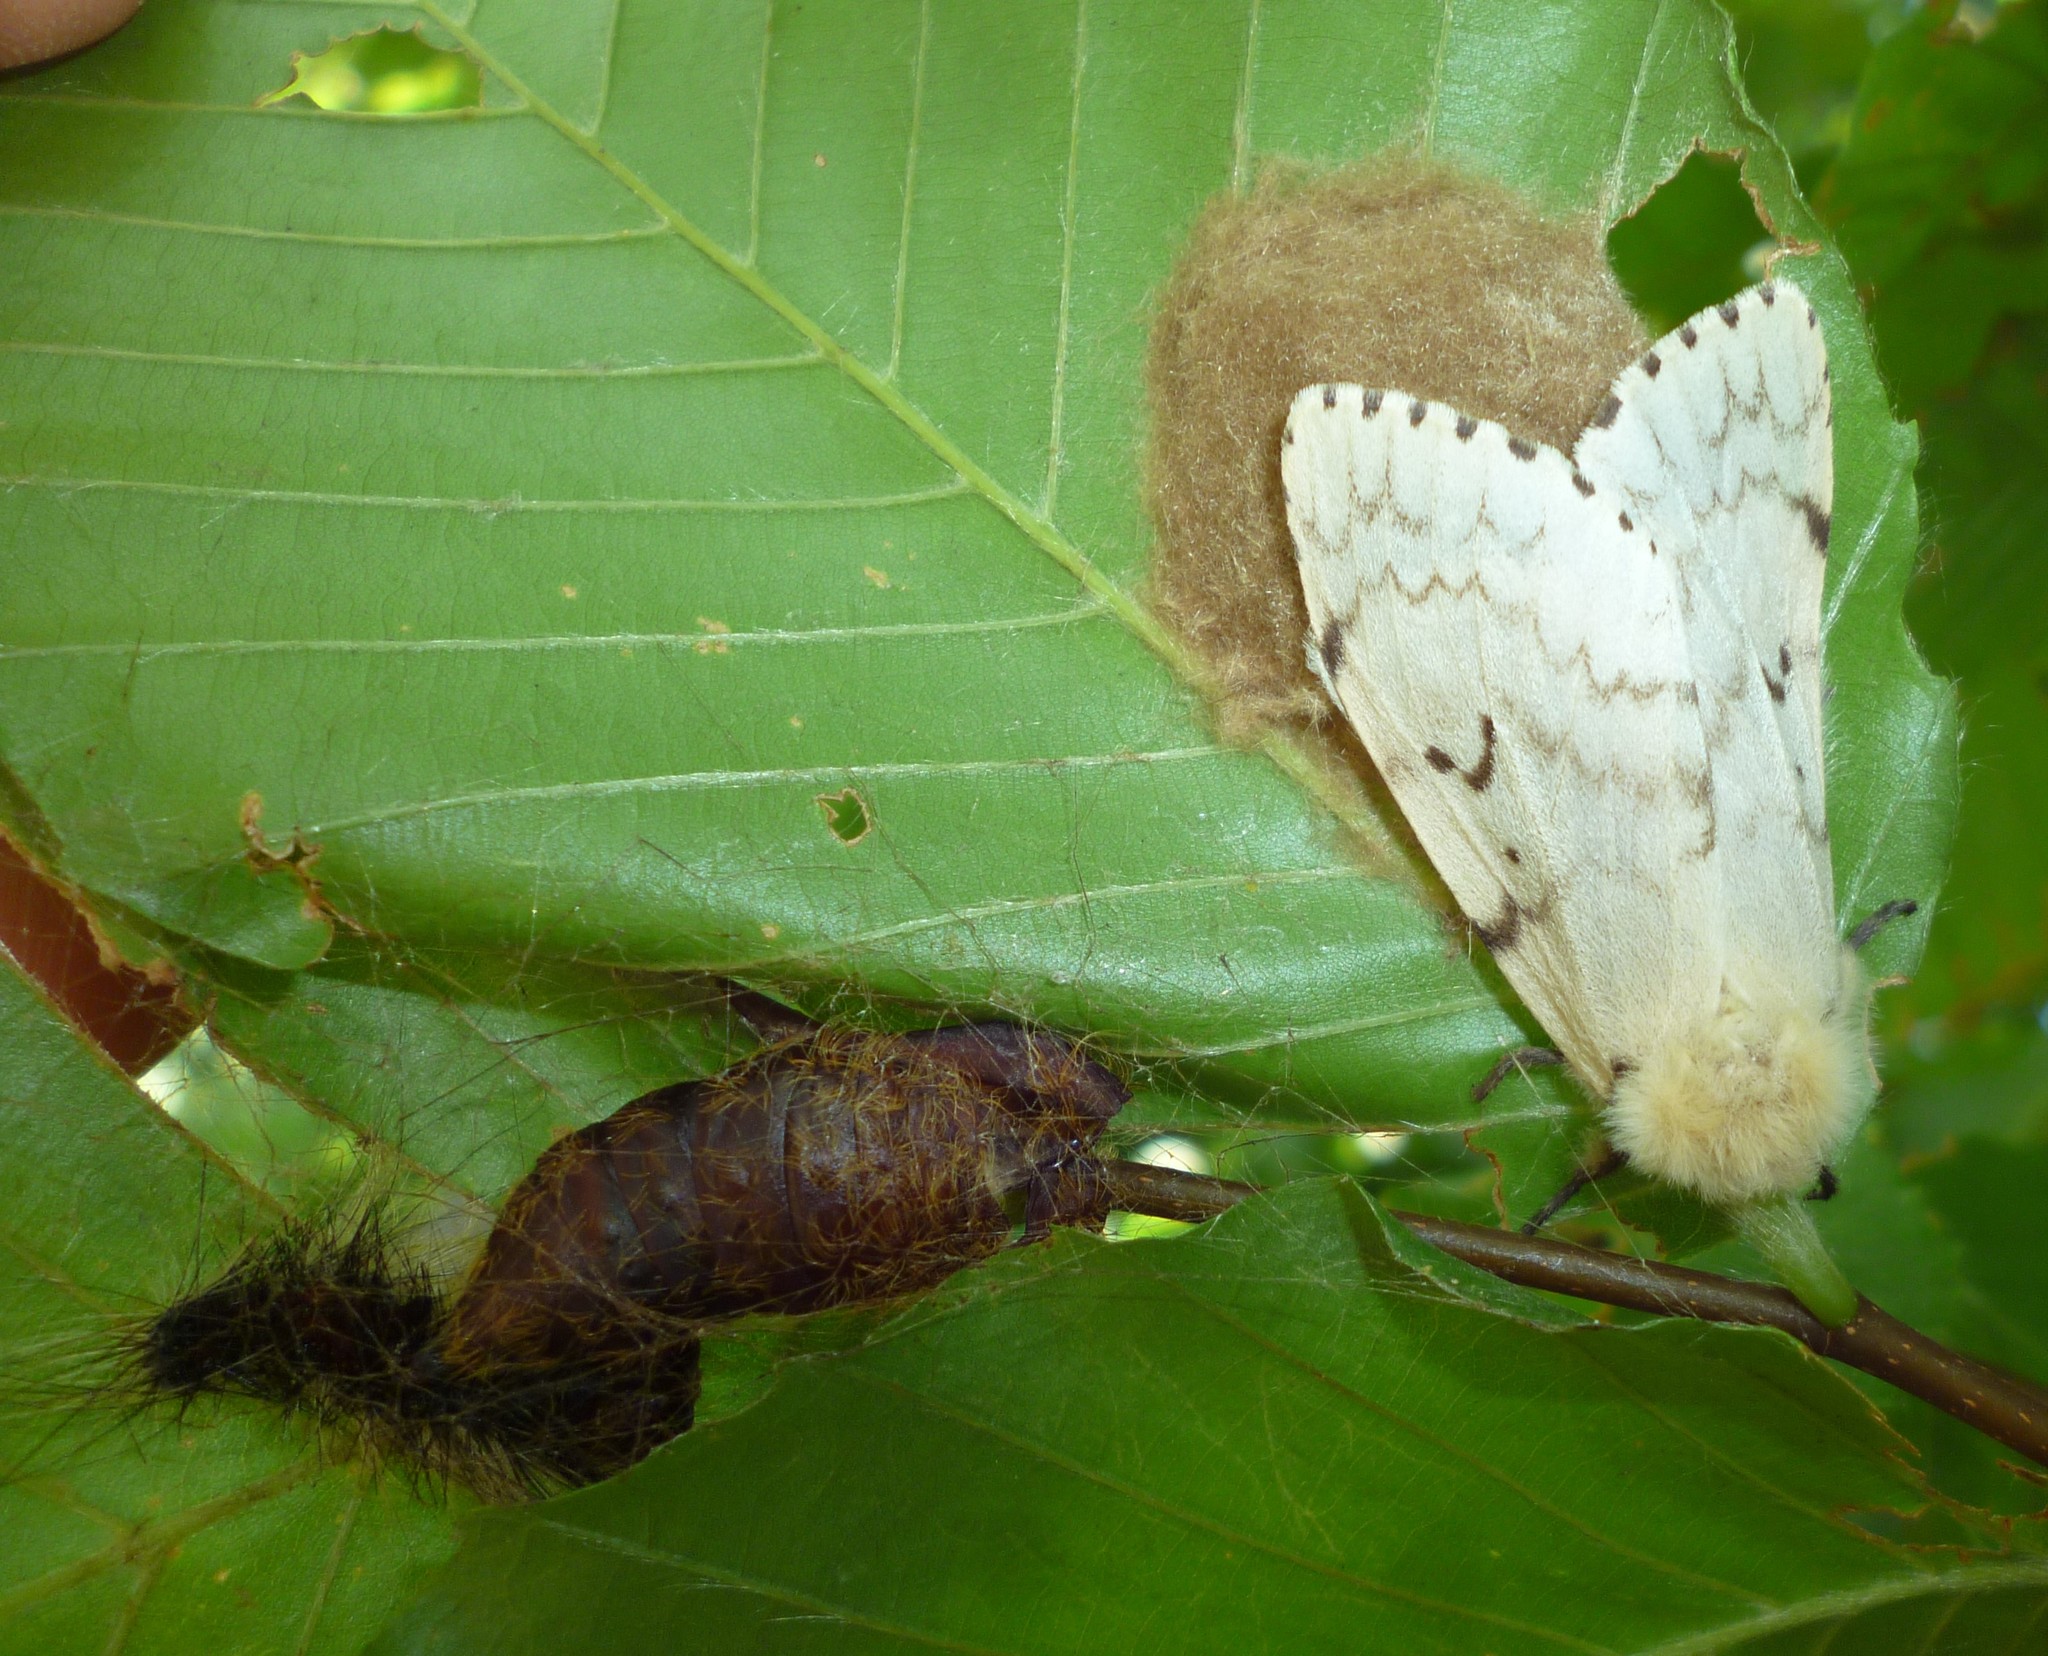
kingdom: Animalia
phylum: Arthropoda
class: Insecta
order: Lepidoptera
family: Erebidae
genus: Lymantria
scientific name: Lymantria dispar
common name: Gypsy moth
